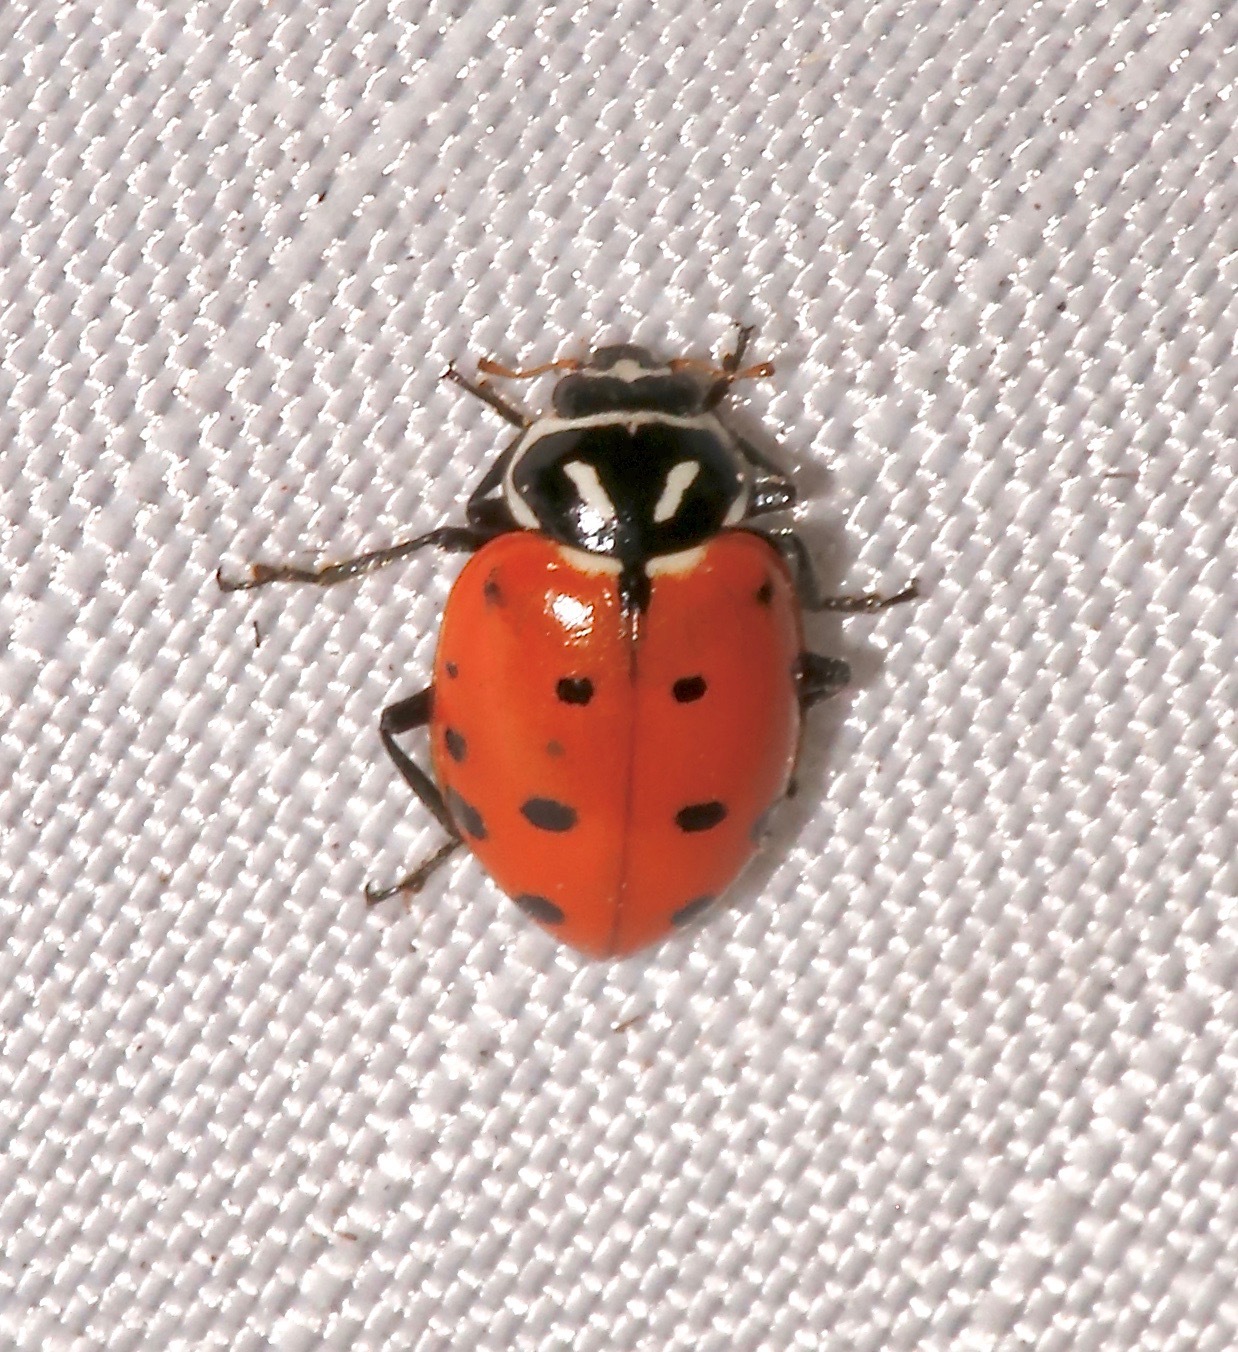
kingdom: Animalia
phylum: Arthropoda
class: Insecta
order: Coleoptera
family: Coccinellidae
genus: Hippodamia
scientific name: Hippodamia convergens
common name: Convergent lady beetle
